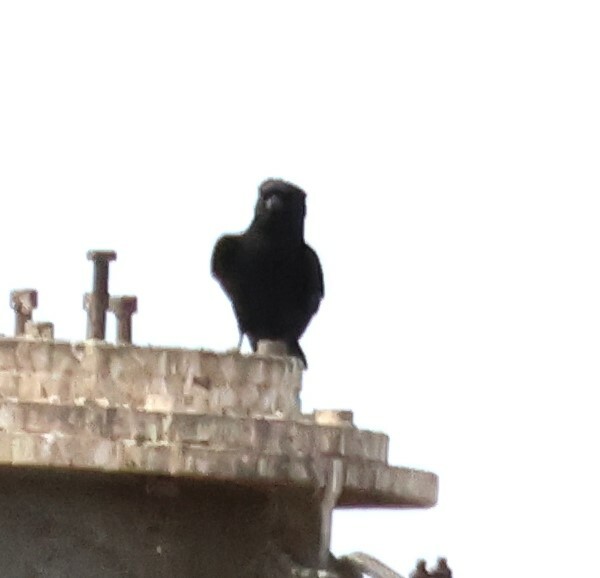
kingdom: Animalia
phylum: Chordata
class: Aves
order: Passeriformes
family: Dicruridae
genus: Dicrurus
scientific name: Dicrurus adsimilis
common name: Fork-tailed drongo
